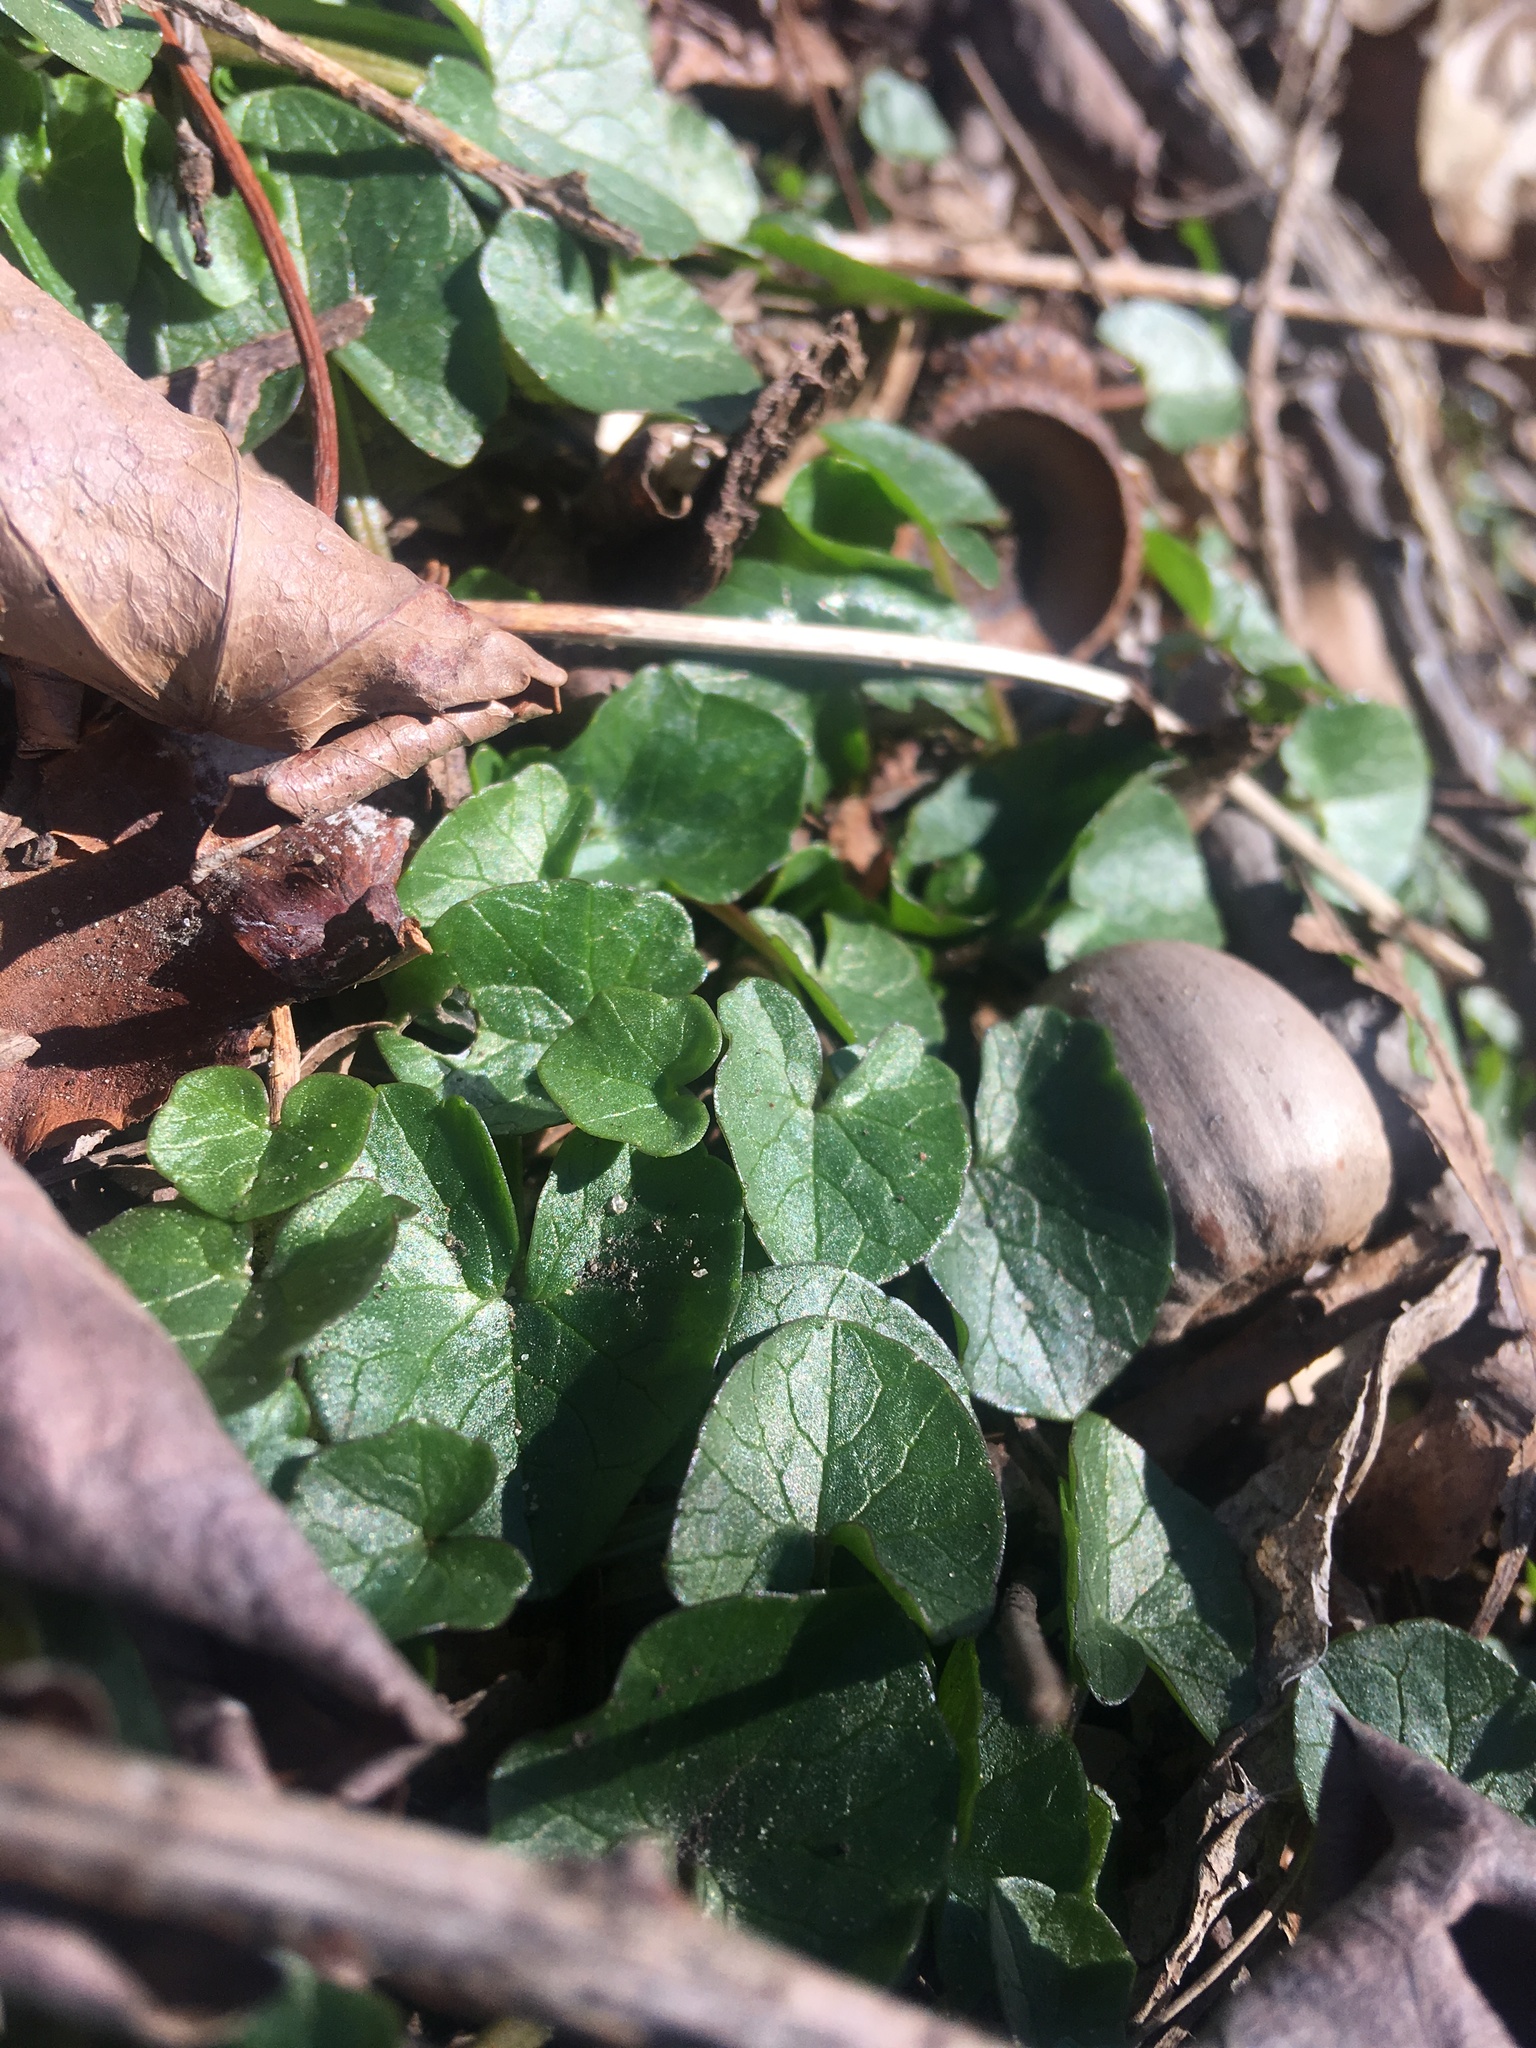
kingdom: Plantae
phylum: Tracheophyta
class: Magnoliopsida
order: Ranunculales
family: Ranunculaceae
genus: Ficaria
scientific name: Ficaria verna
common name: Lesser celandine
